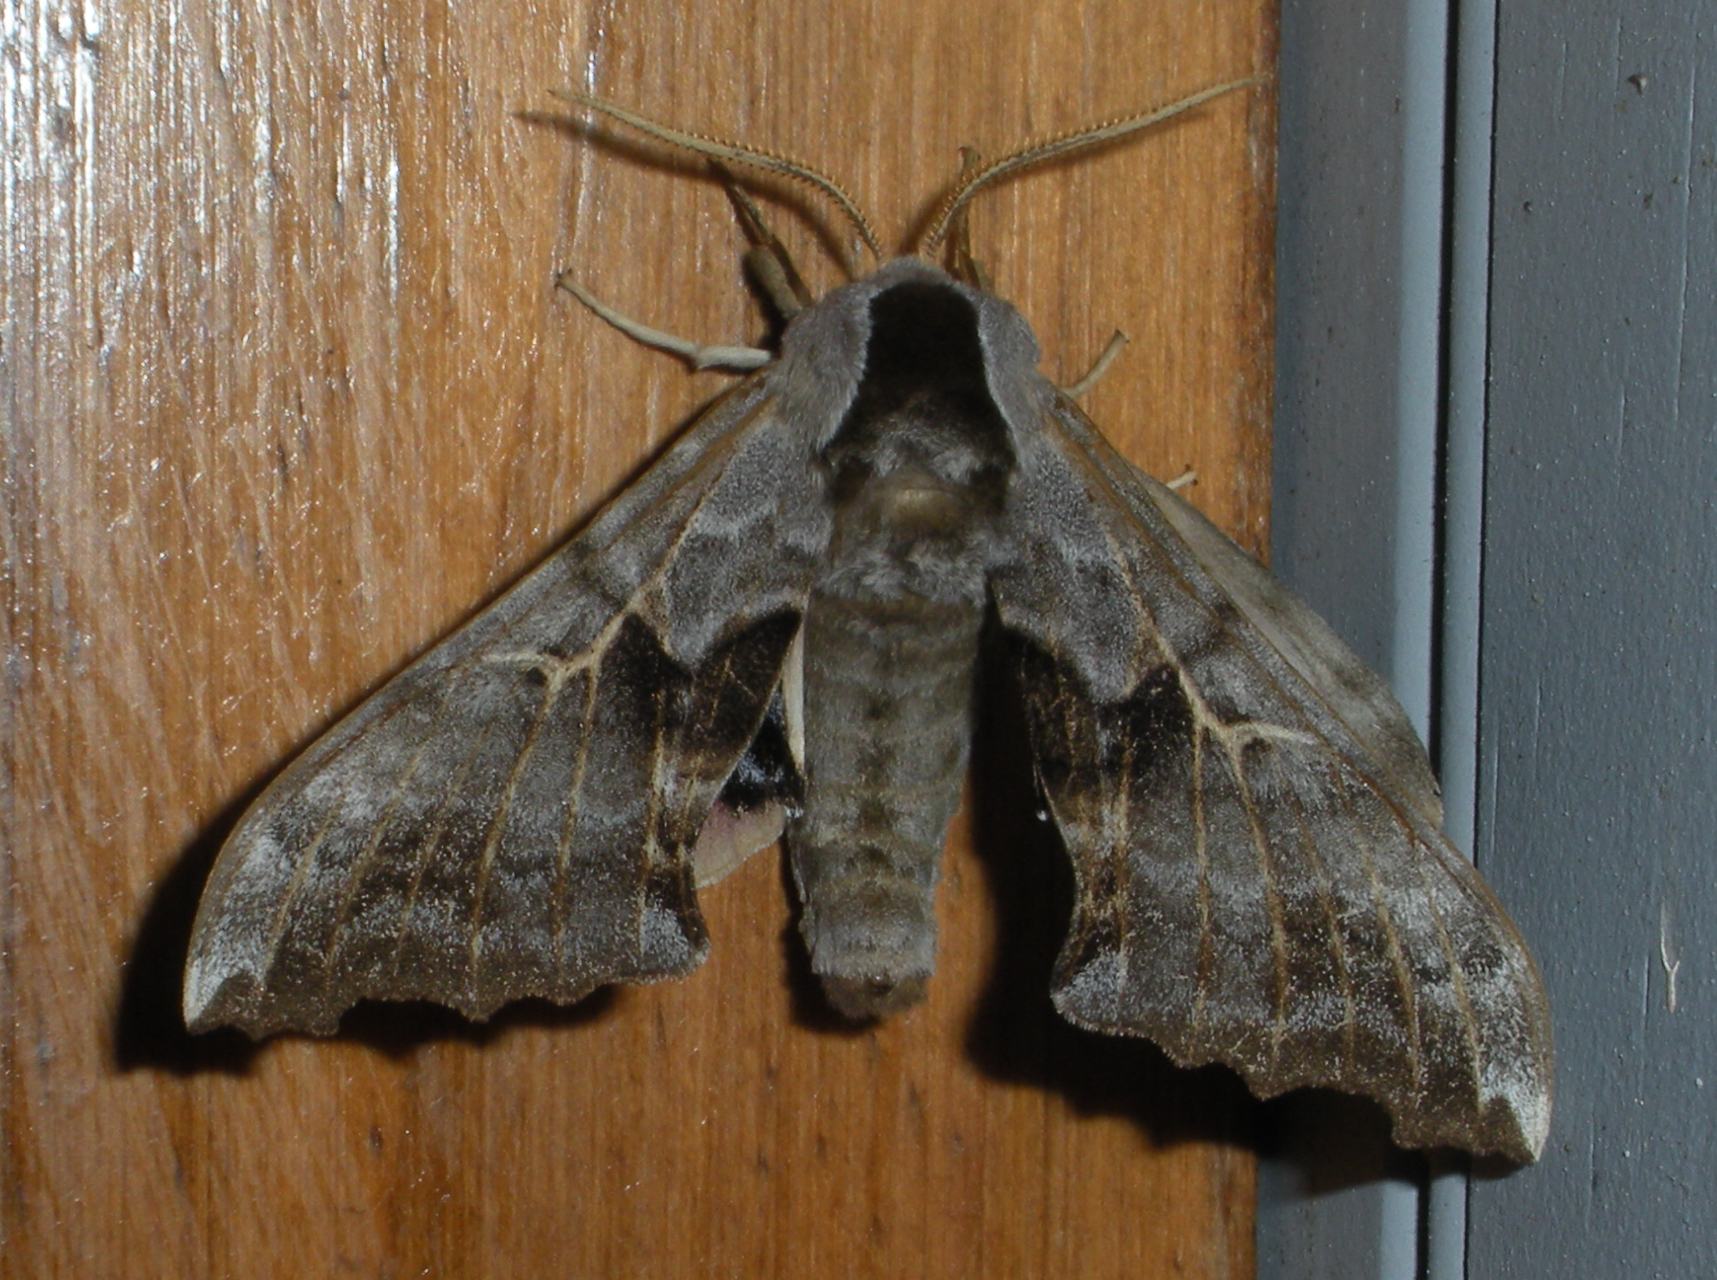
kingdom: Animalia
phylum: Arthropoda
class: Insecta
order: Lepidoptera
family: Sphingidae
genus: Smerinthus
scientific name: Smerinthus cerisyi
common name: Cerisy's sphinx moth
